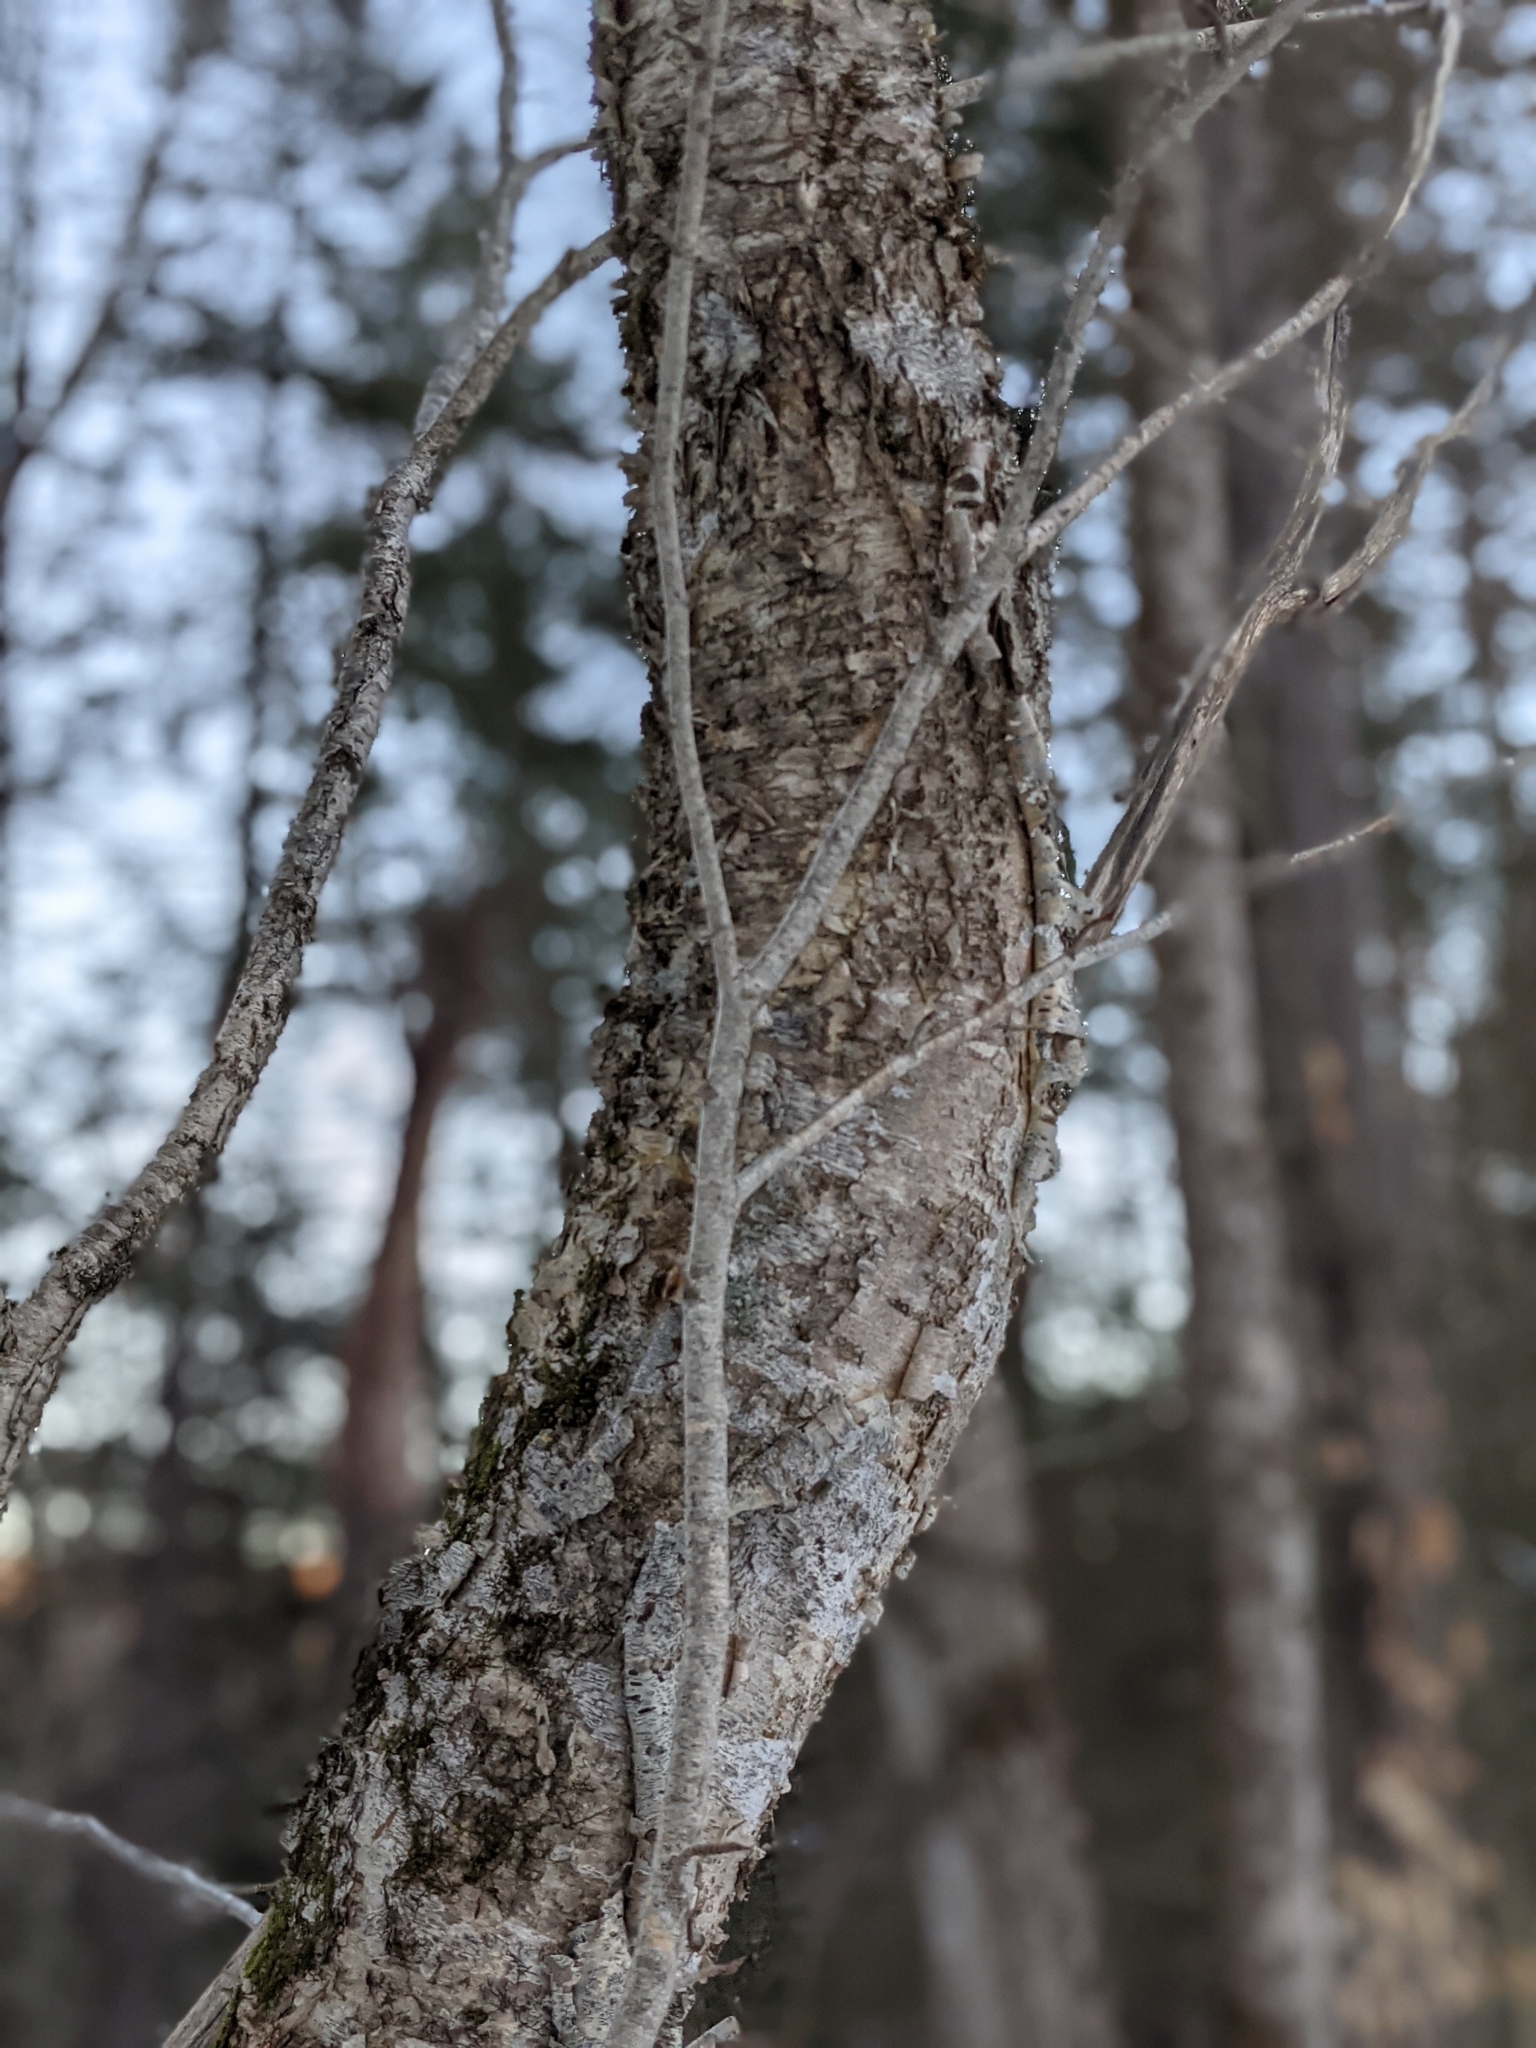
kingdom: Plantae
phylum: Tracheophyta
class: Magnoliopsida
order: Fagales
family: Betulaceae
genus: Betula
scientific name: Betula alleghaniensis
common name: Yellow birch
